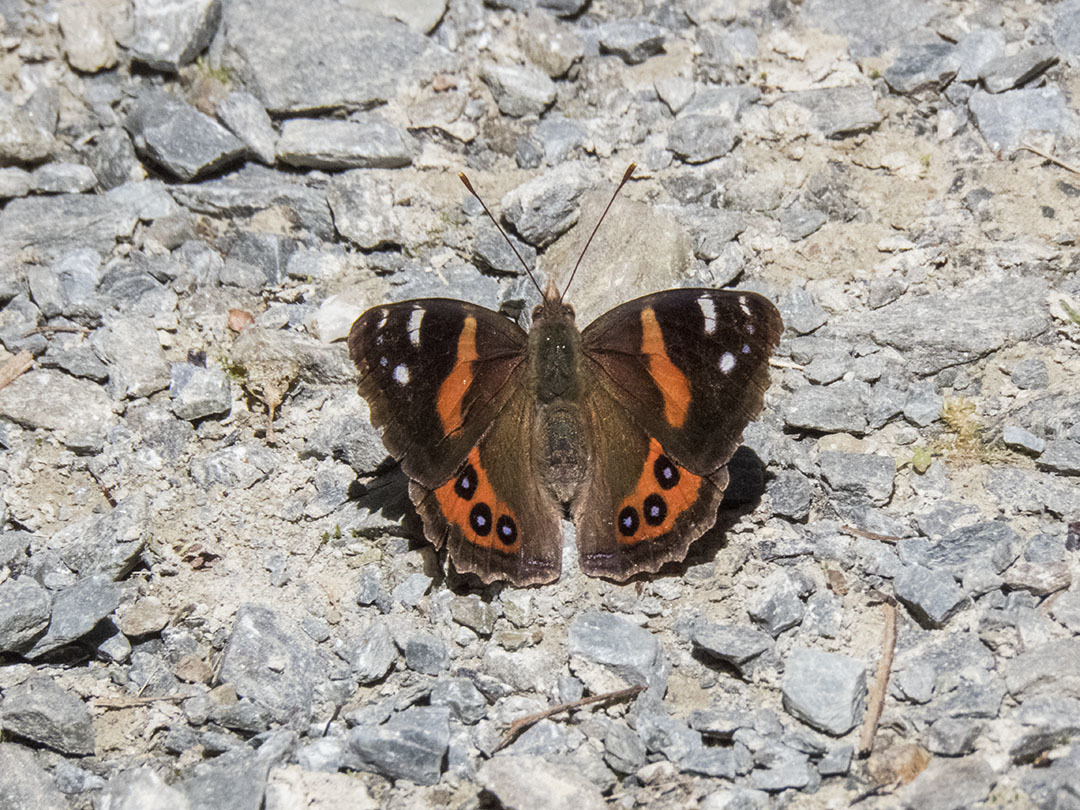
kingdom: Animalia
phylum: Arthropoda
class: Insecta
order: Lepidoptera
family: Nymphalidae
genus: Vanessa
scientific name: Vanessa gonerilla
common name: New zealand red admiral
